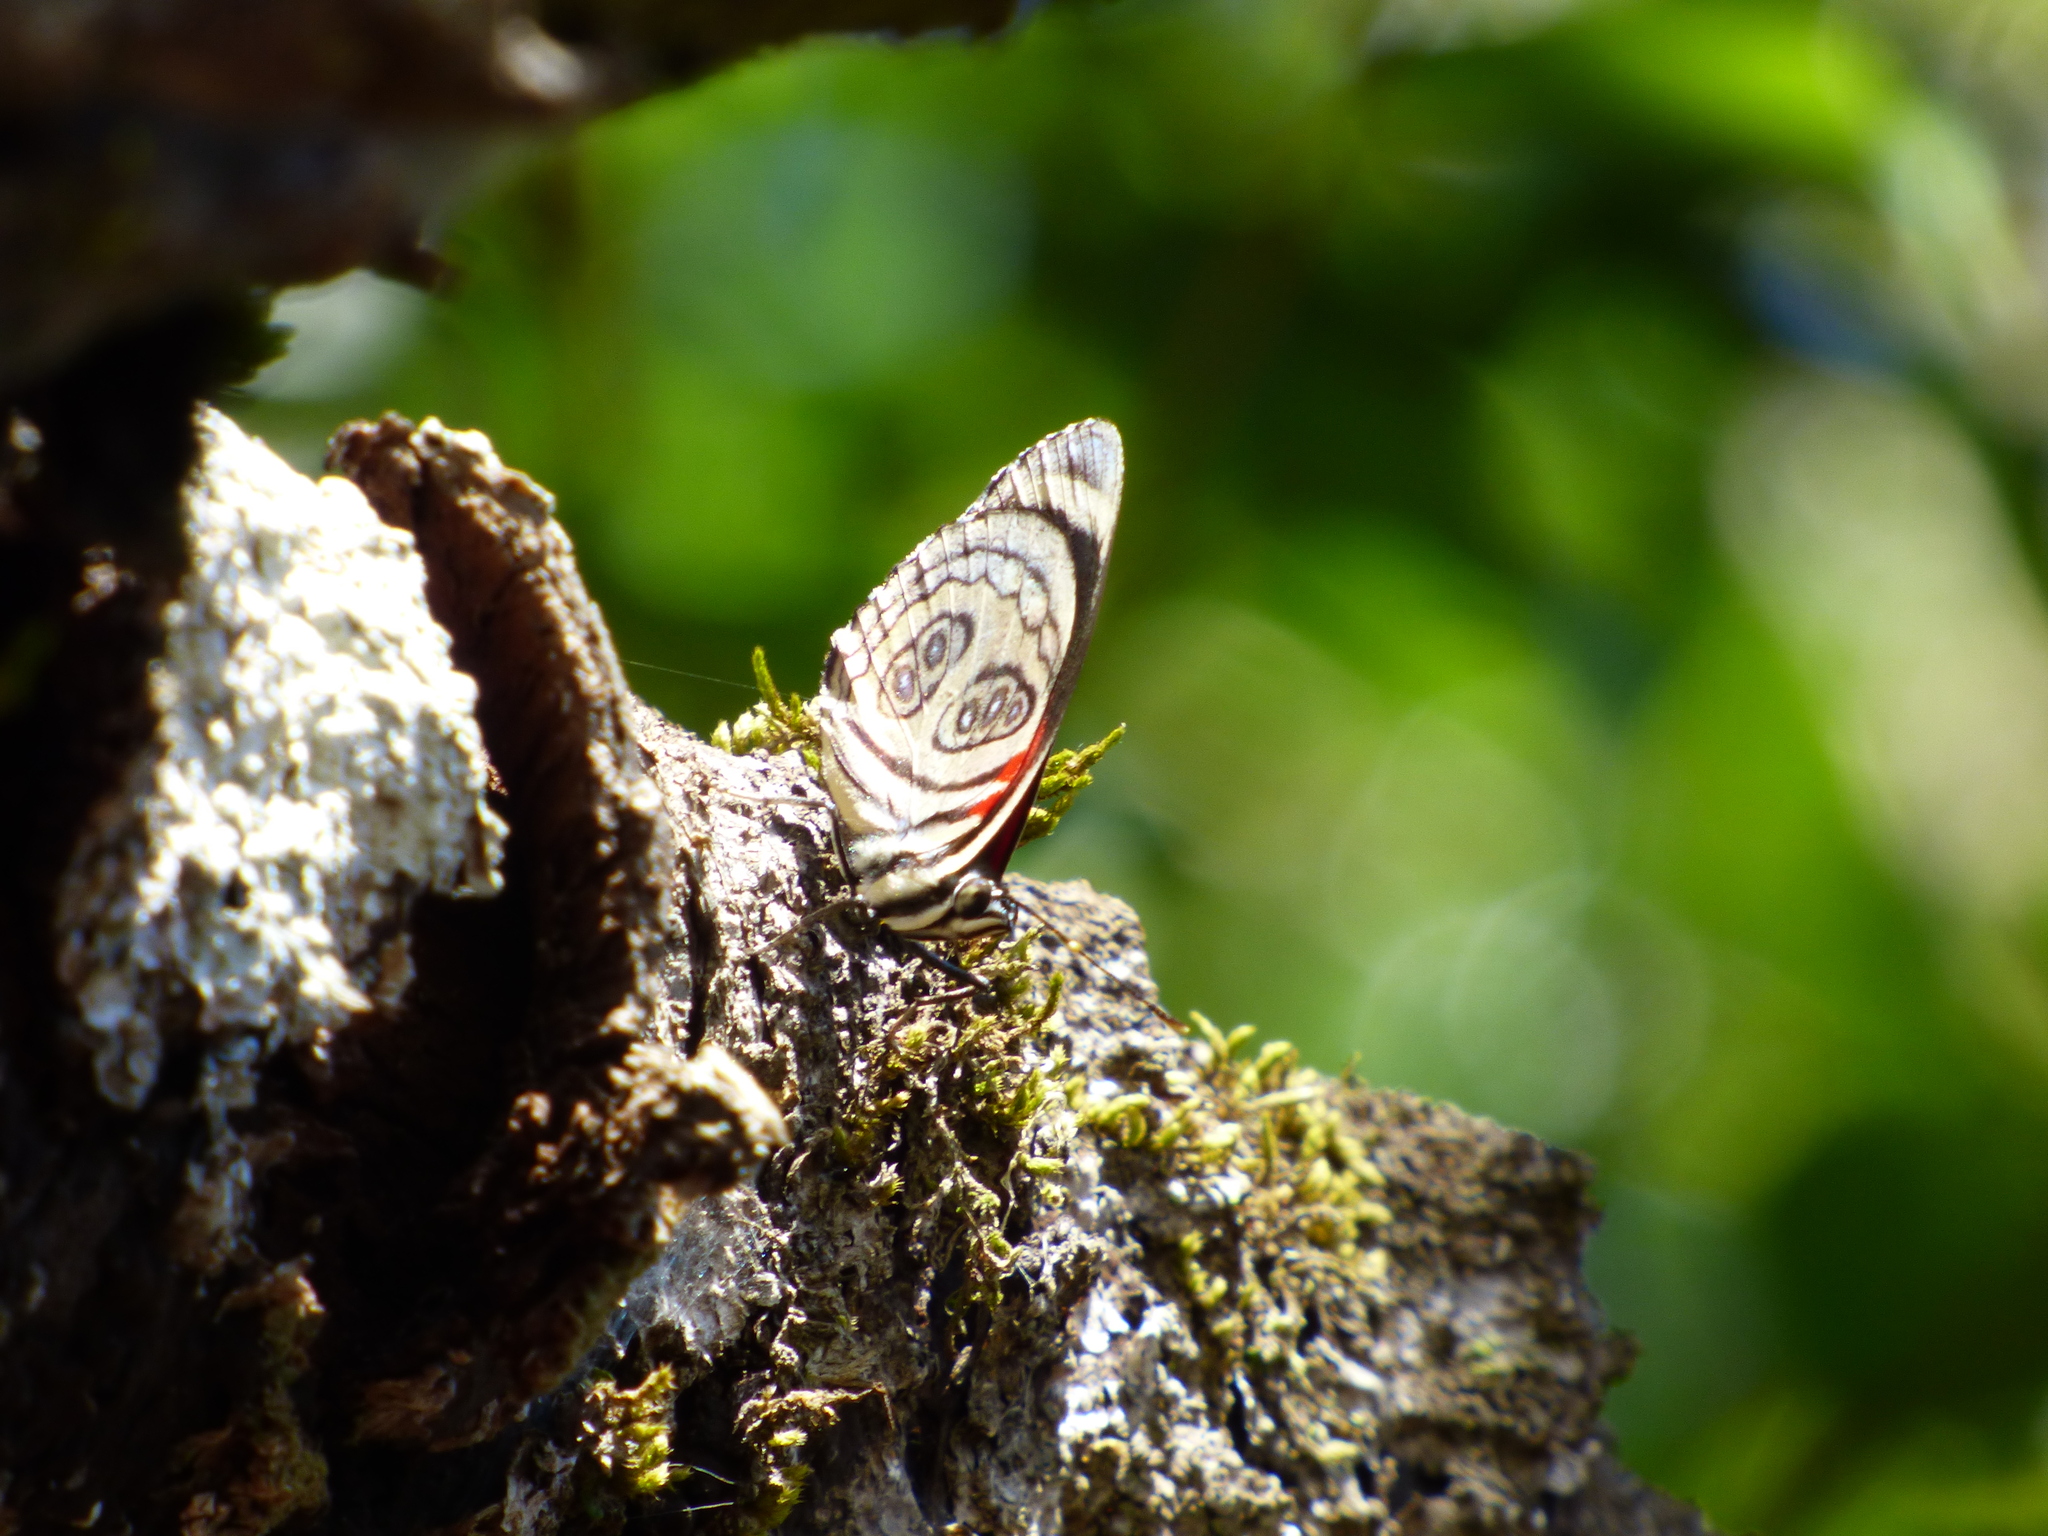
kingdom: Animalia
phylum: Arthropoda
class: Insecta
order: Lepidoptera
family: Nymphalidae
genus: Catagramma
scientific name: Catagramma pygas
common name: Godart's numberwing
